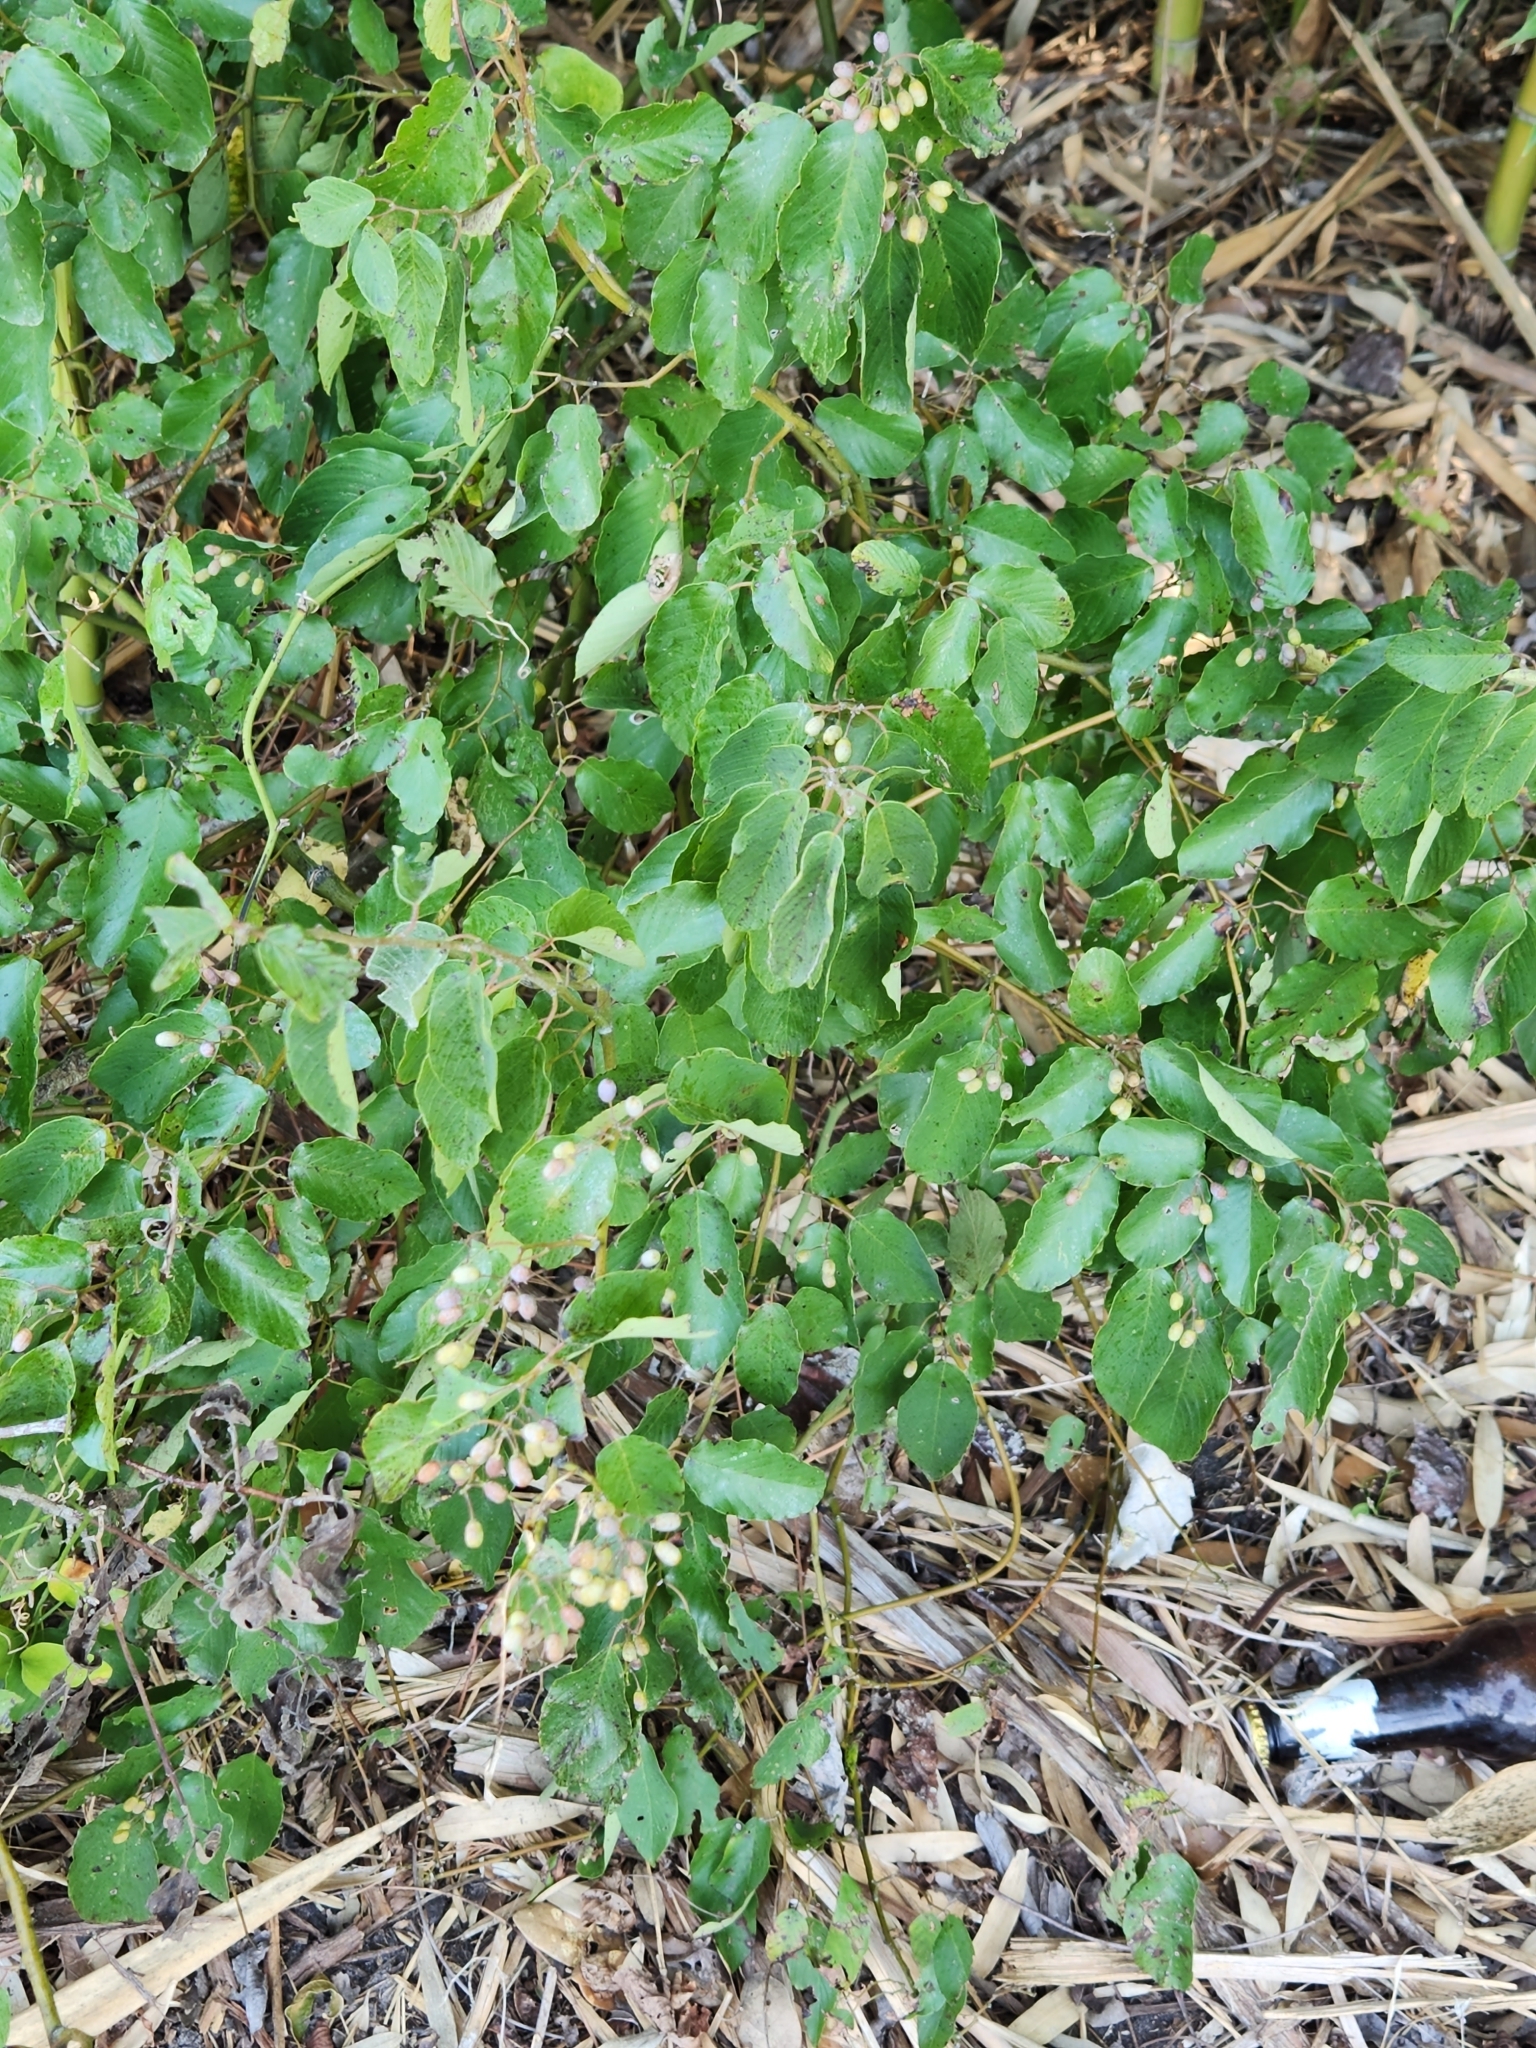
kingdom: Plantae
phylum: Tracheophyta
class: Magnoliopsida
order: Cornales
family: Cornaceae
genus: Cornus
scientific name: Cornus drummondii
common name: Rough-leaf dogwood
